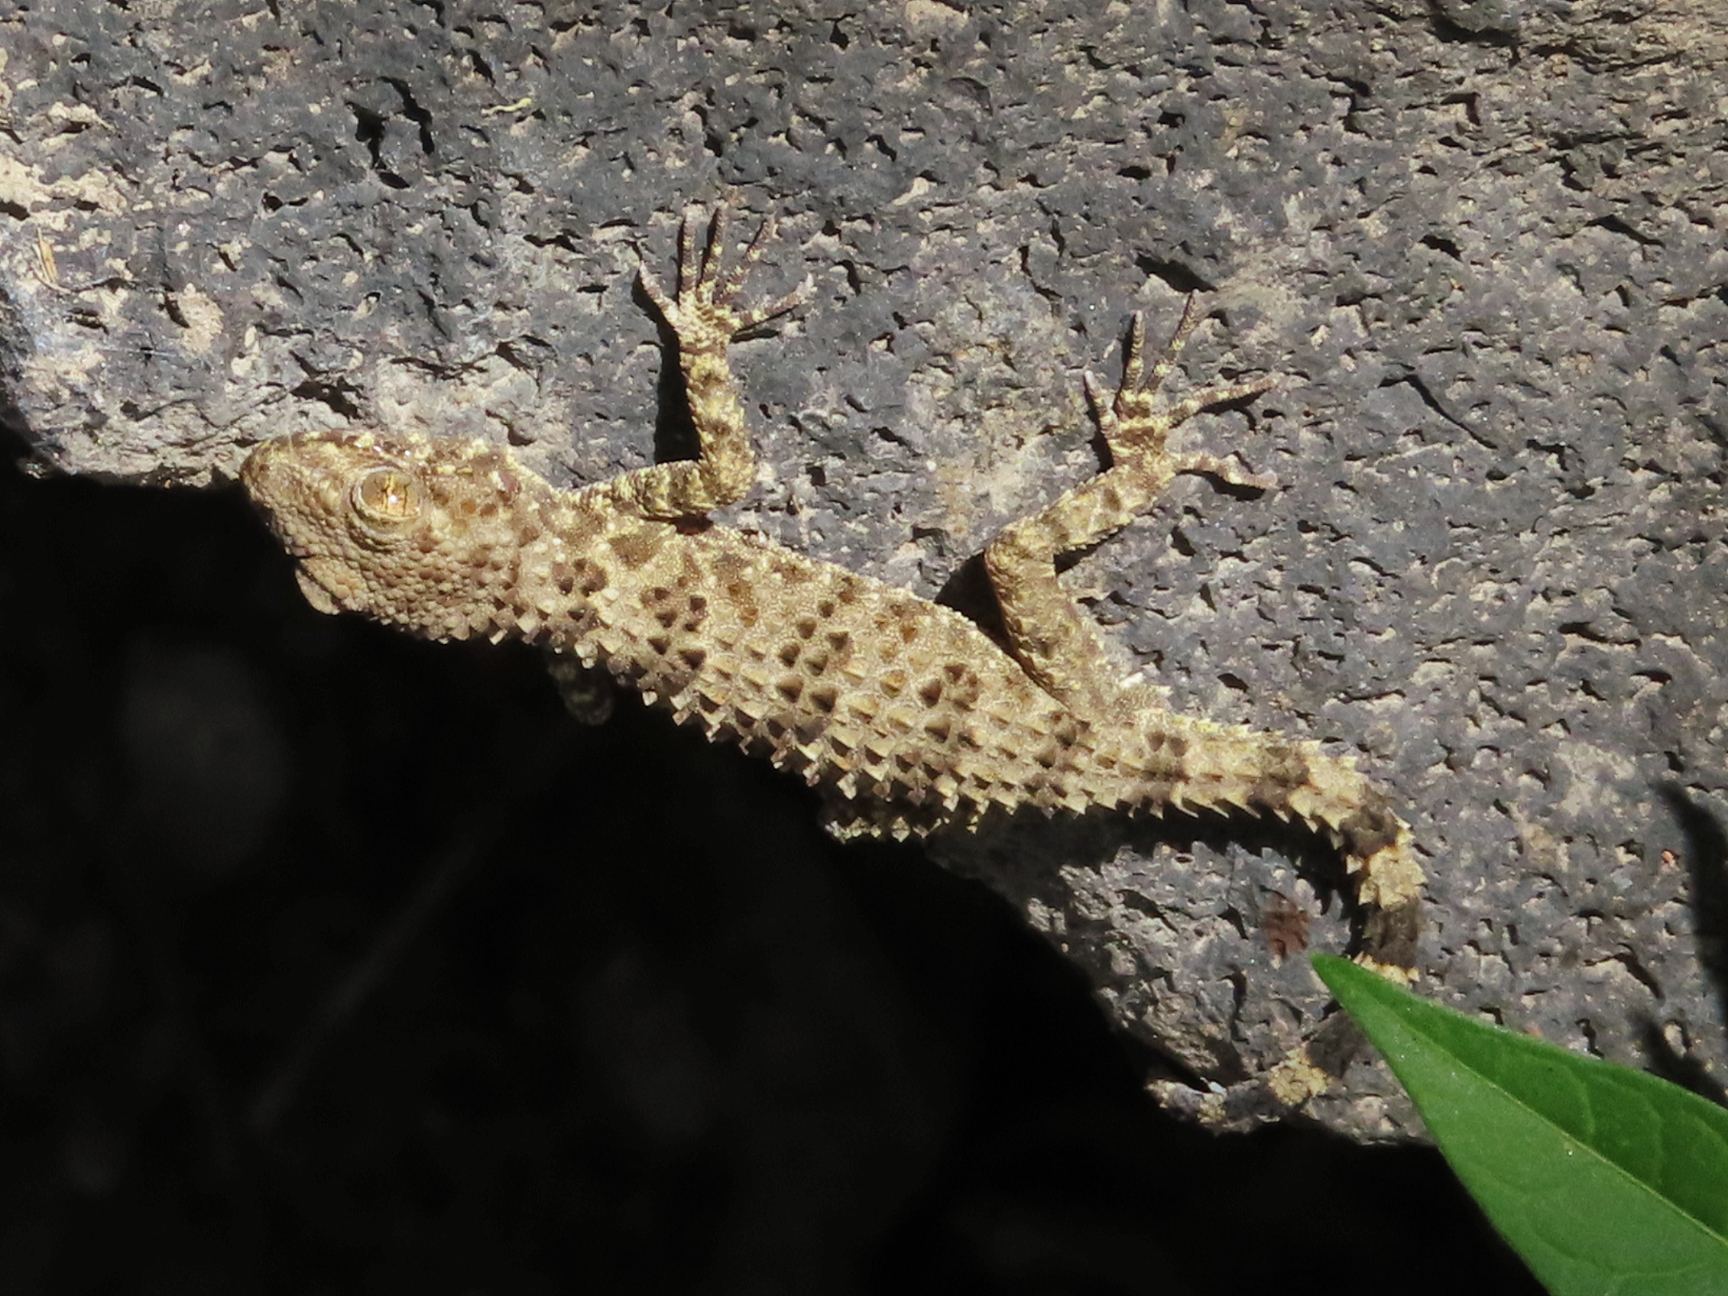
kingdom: Animalia
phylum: Chordata
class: Squamata
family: Gekkonidae
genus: Tenuidactylus
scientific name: Tenuidactylus caspius
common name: Caspian bent-toed gecko
